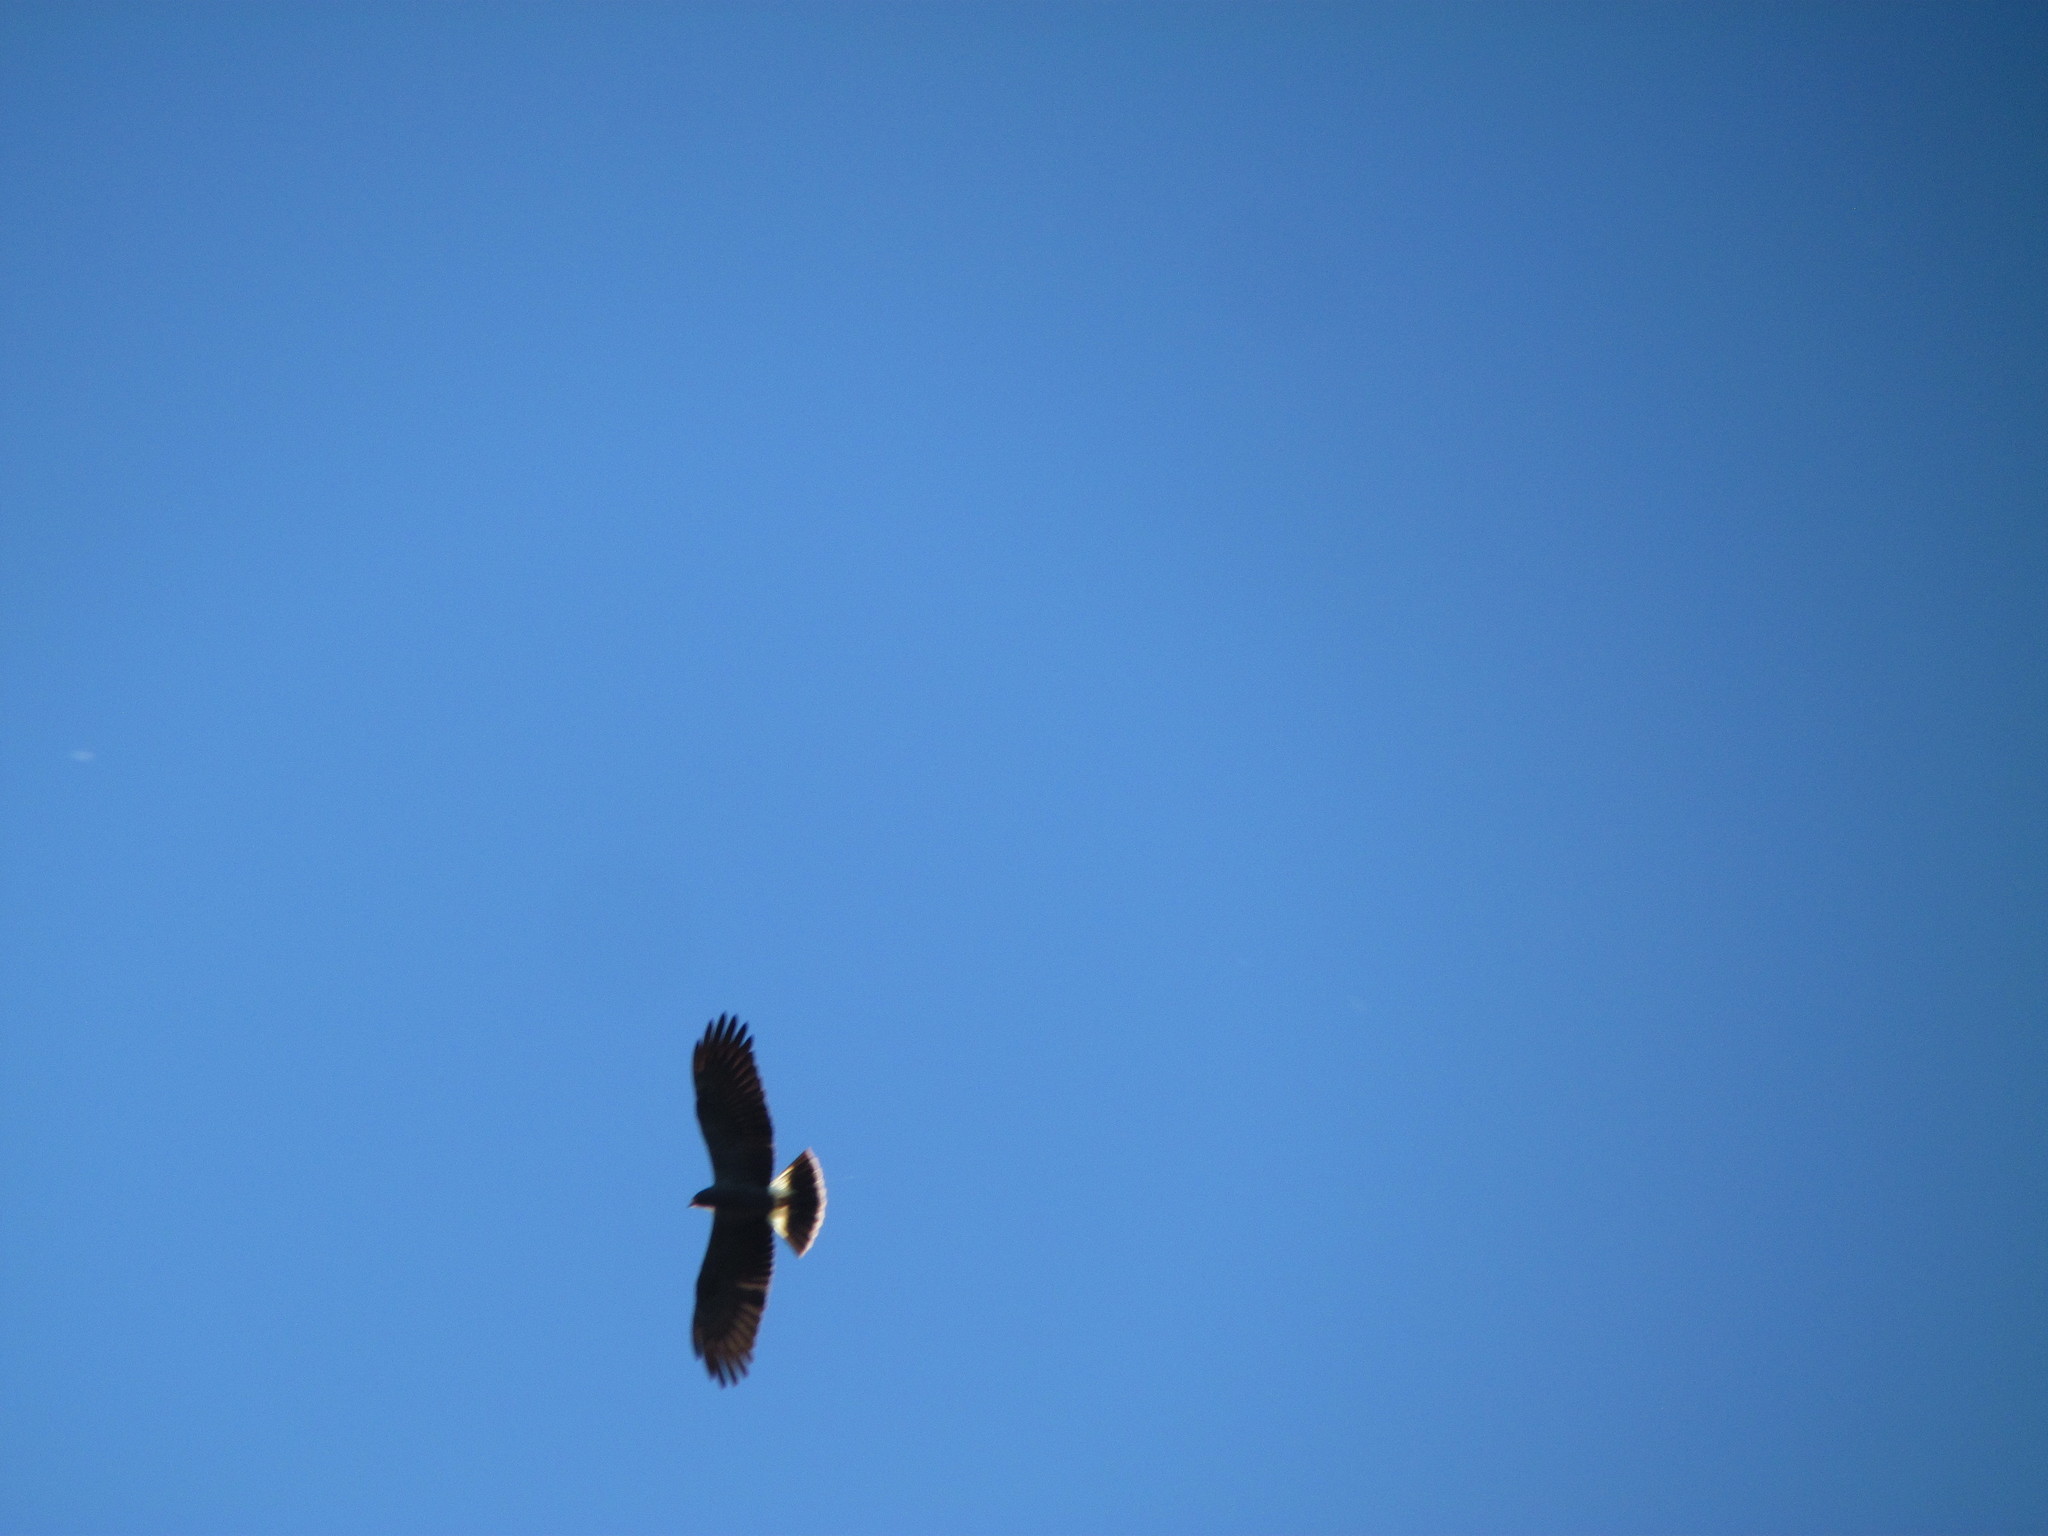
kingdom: Animalia
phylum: Chordata
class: Aves
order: Accipitriformes
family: Accipitridae
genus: Rostrhamus
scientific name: Rostrhamus sociabilis
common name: Snail kite
